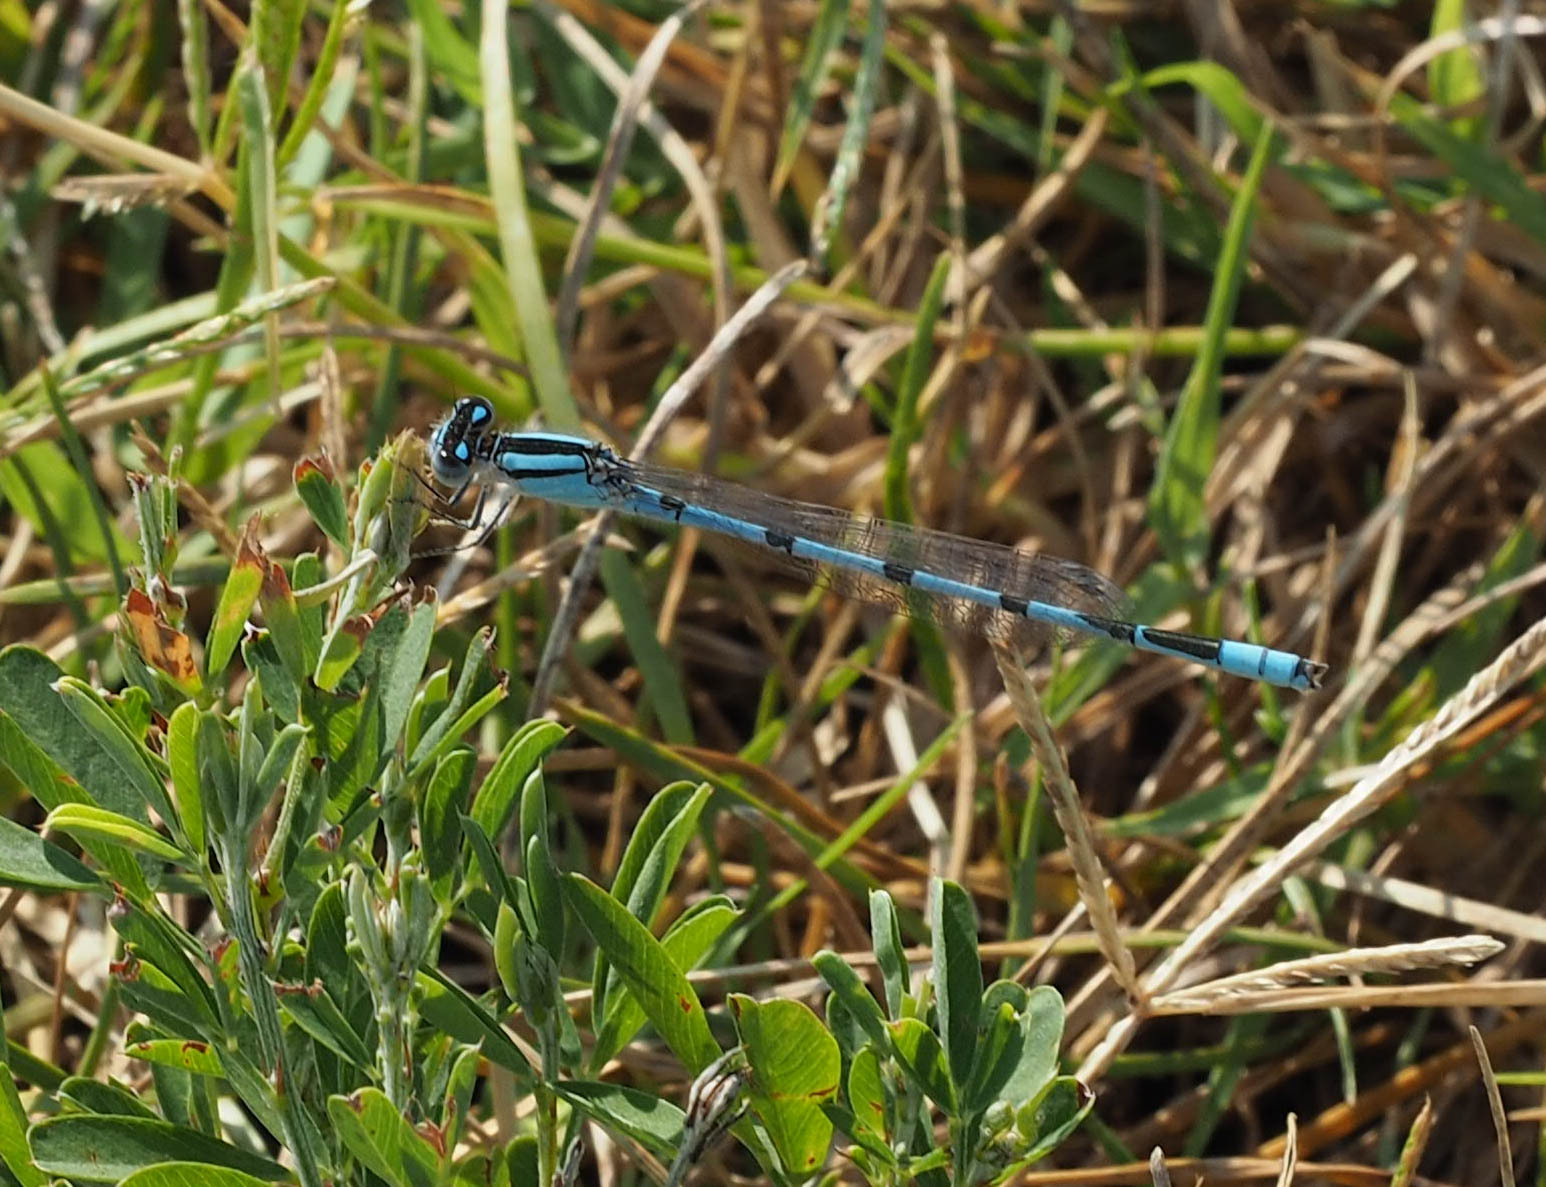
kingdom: Animalia
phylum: Arthropoda
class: Insecta
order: Odonata
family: Coenagrionidae
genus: Enallagma
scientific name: Enallagma civile
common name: Damselfly
